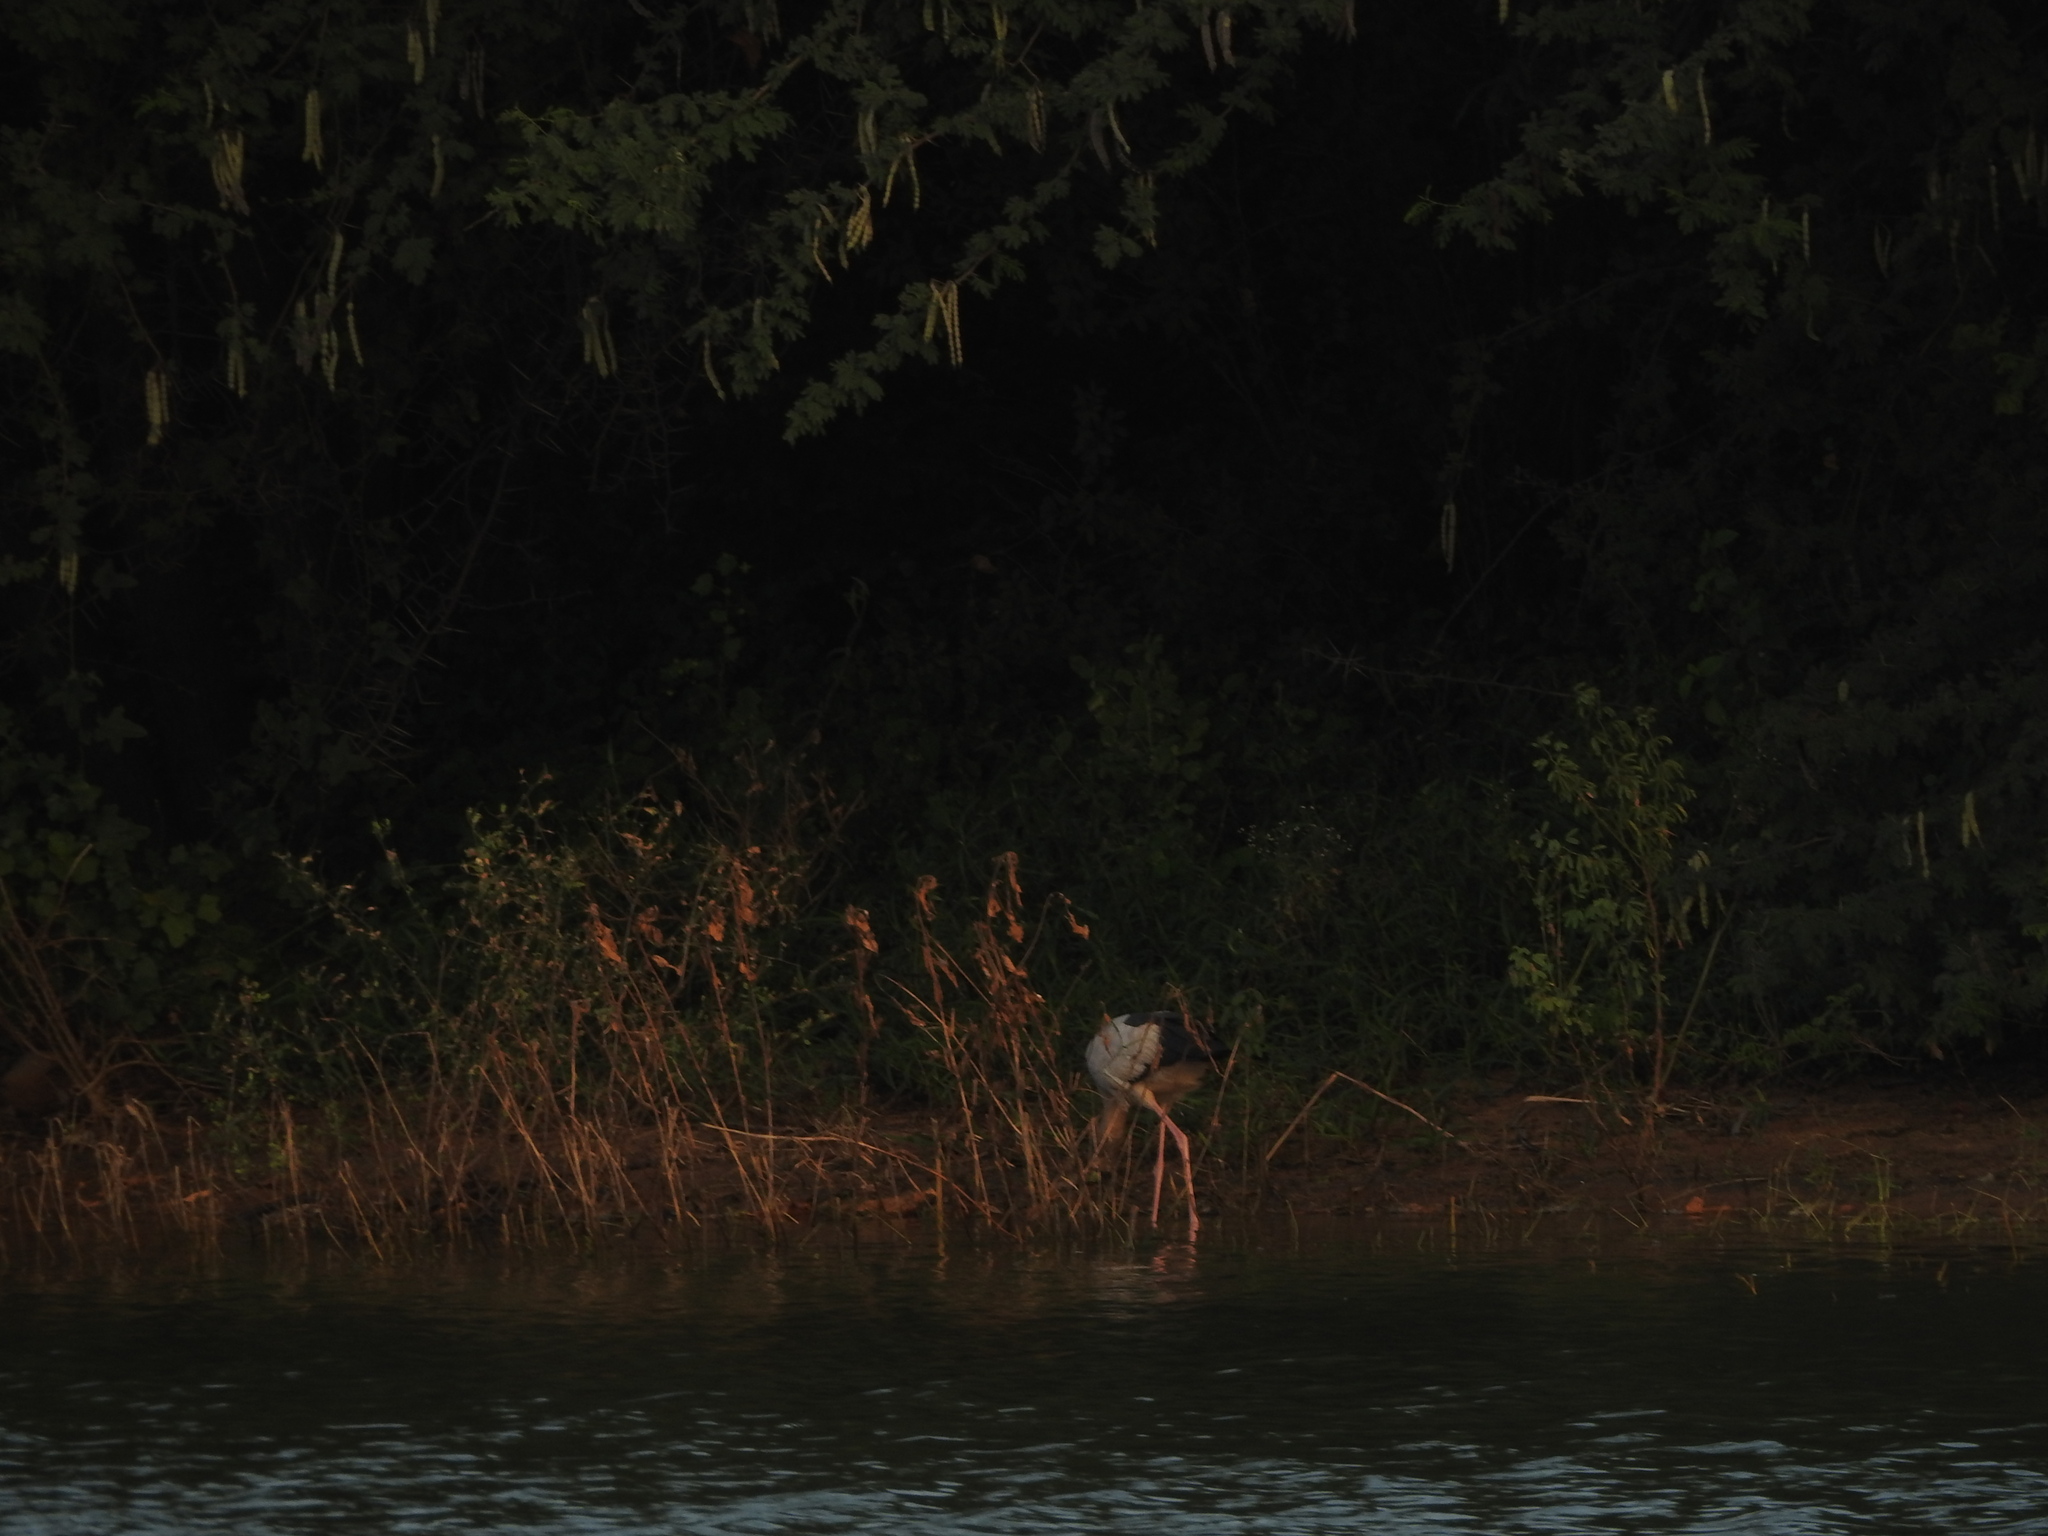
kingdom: Animalia
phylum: Chordata
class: Aves
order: Ciconiiformes
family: Ciconiidae
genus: Anastomus
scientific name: Anastomus oscitans
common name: Asian openbill
